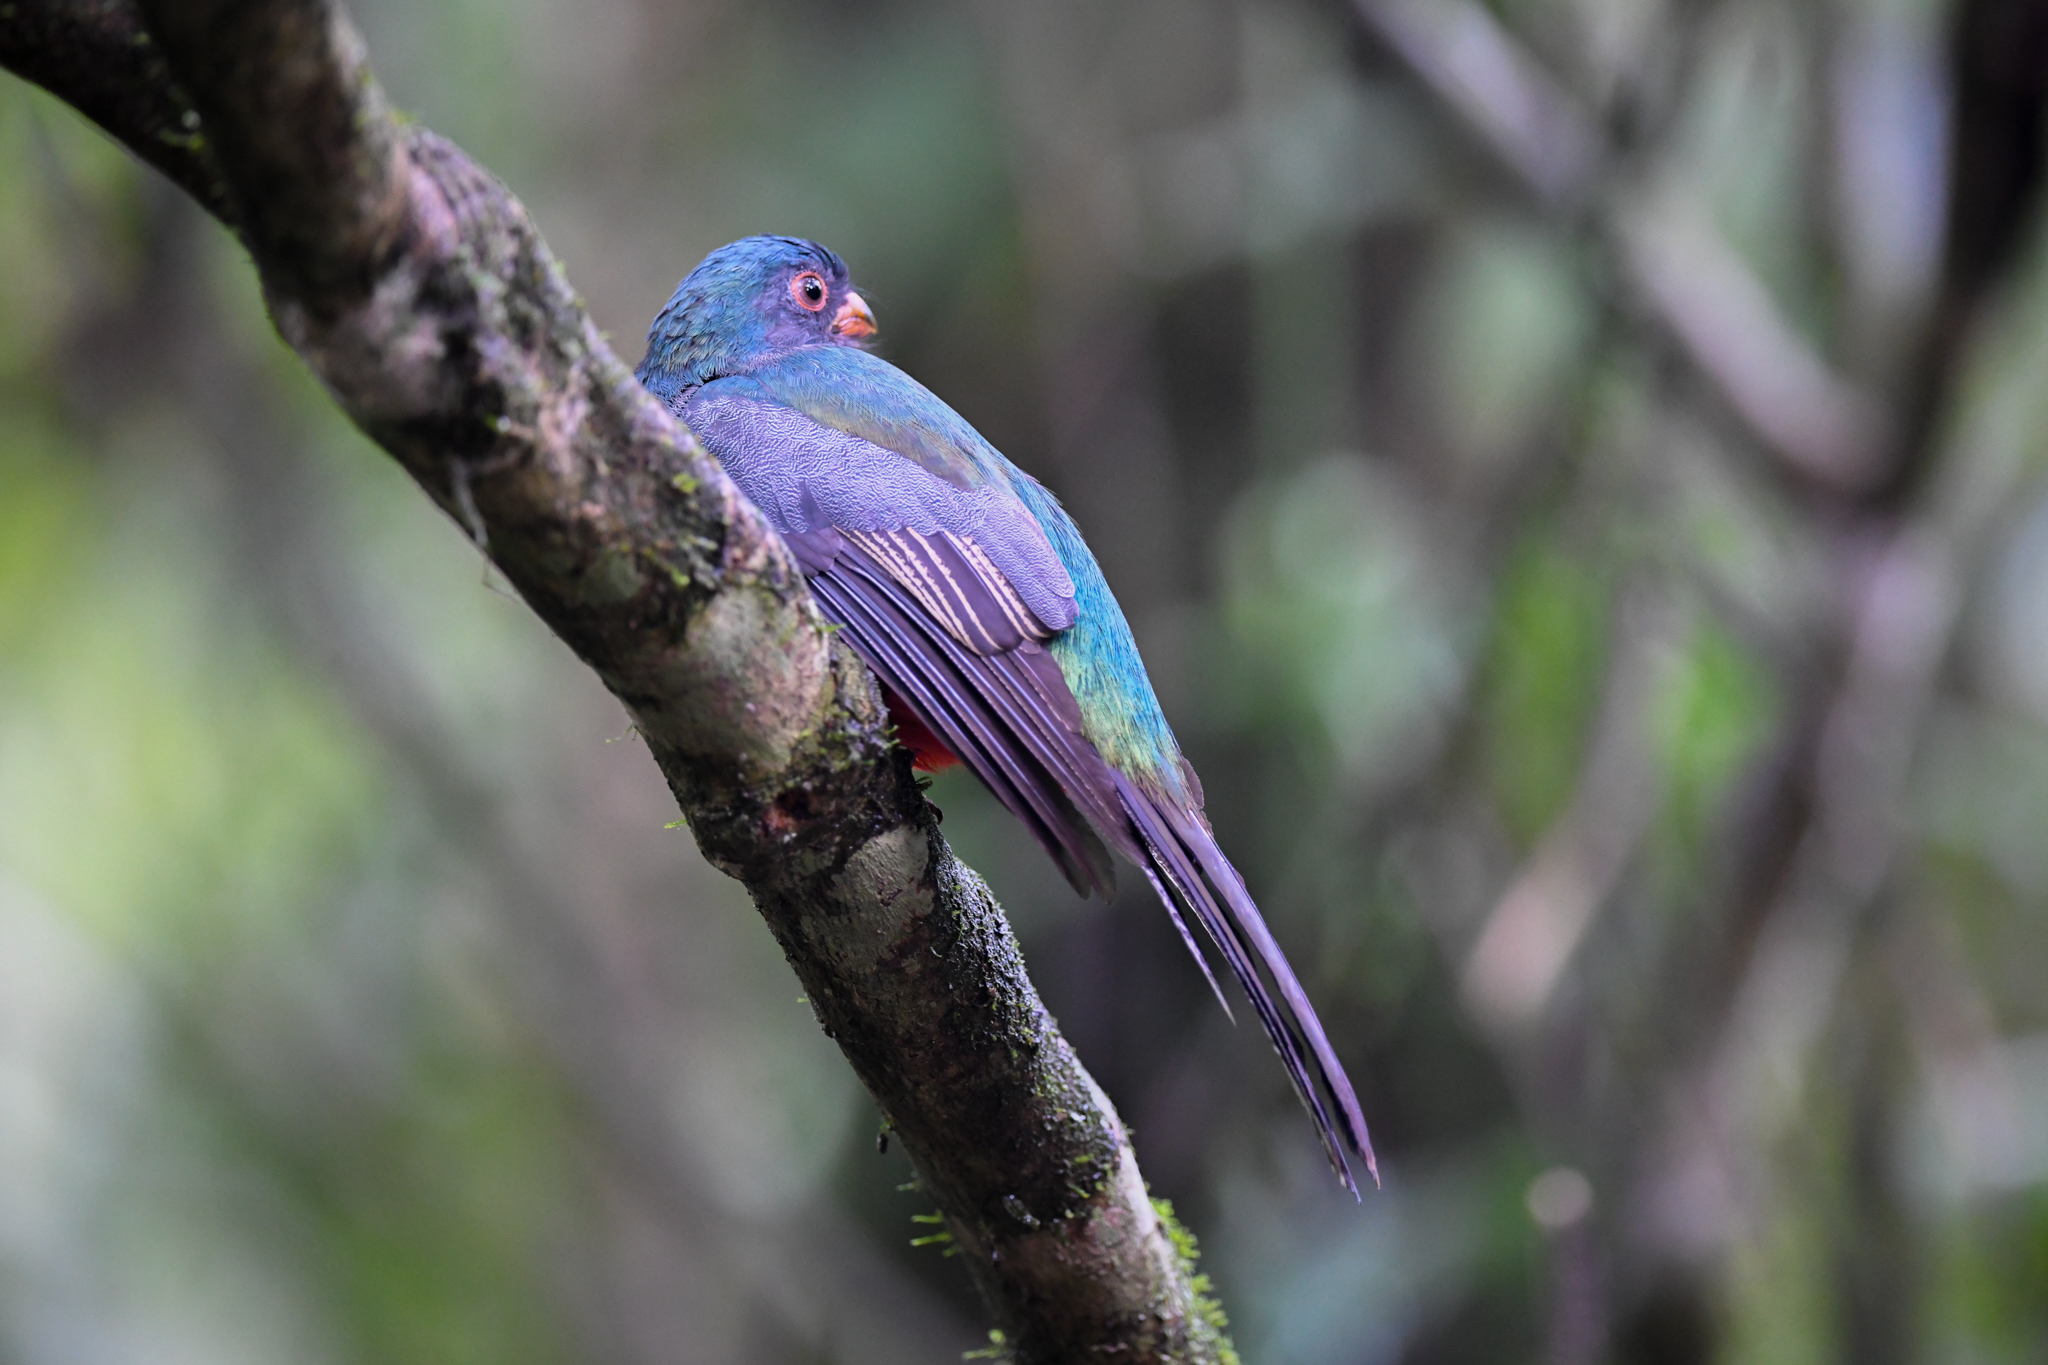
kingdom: Animalia
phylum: Chordata
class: Aves
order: Trogoniformes
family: Trogonidae
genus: Trogon
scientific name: Trogon massena
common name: Slaty-tailed trogon
